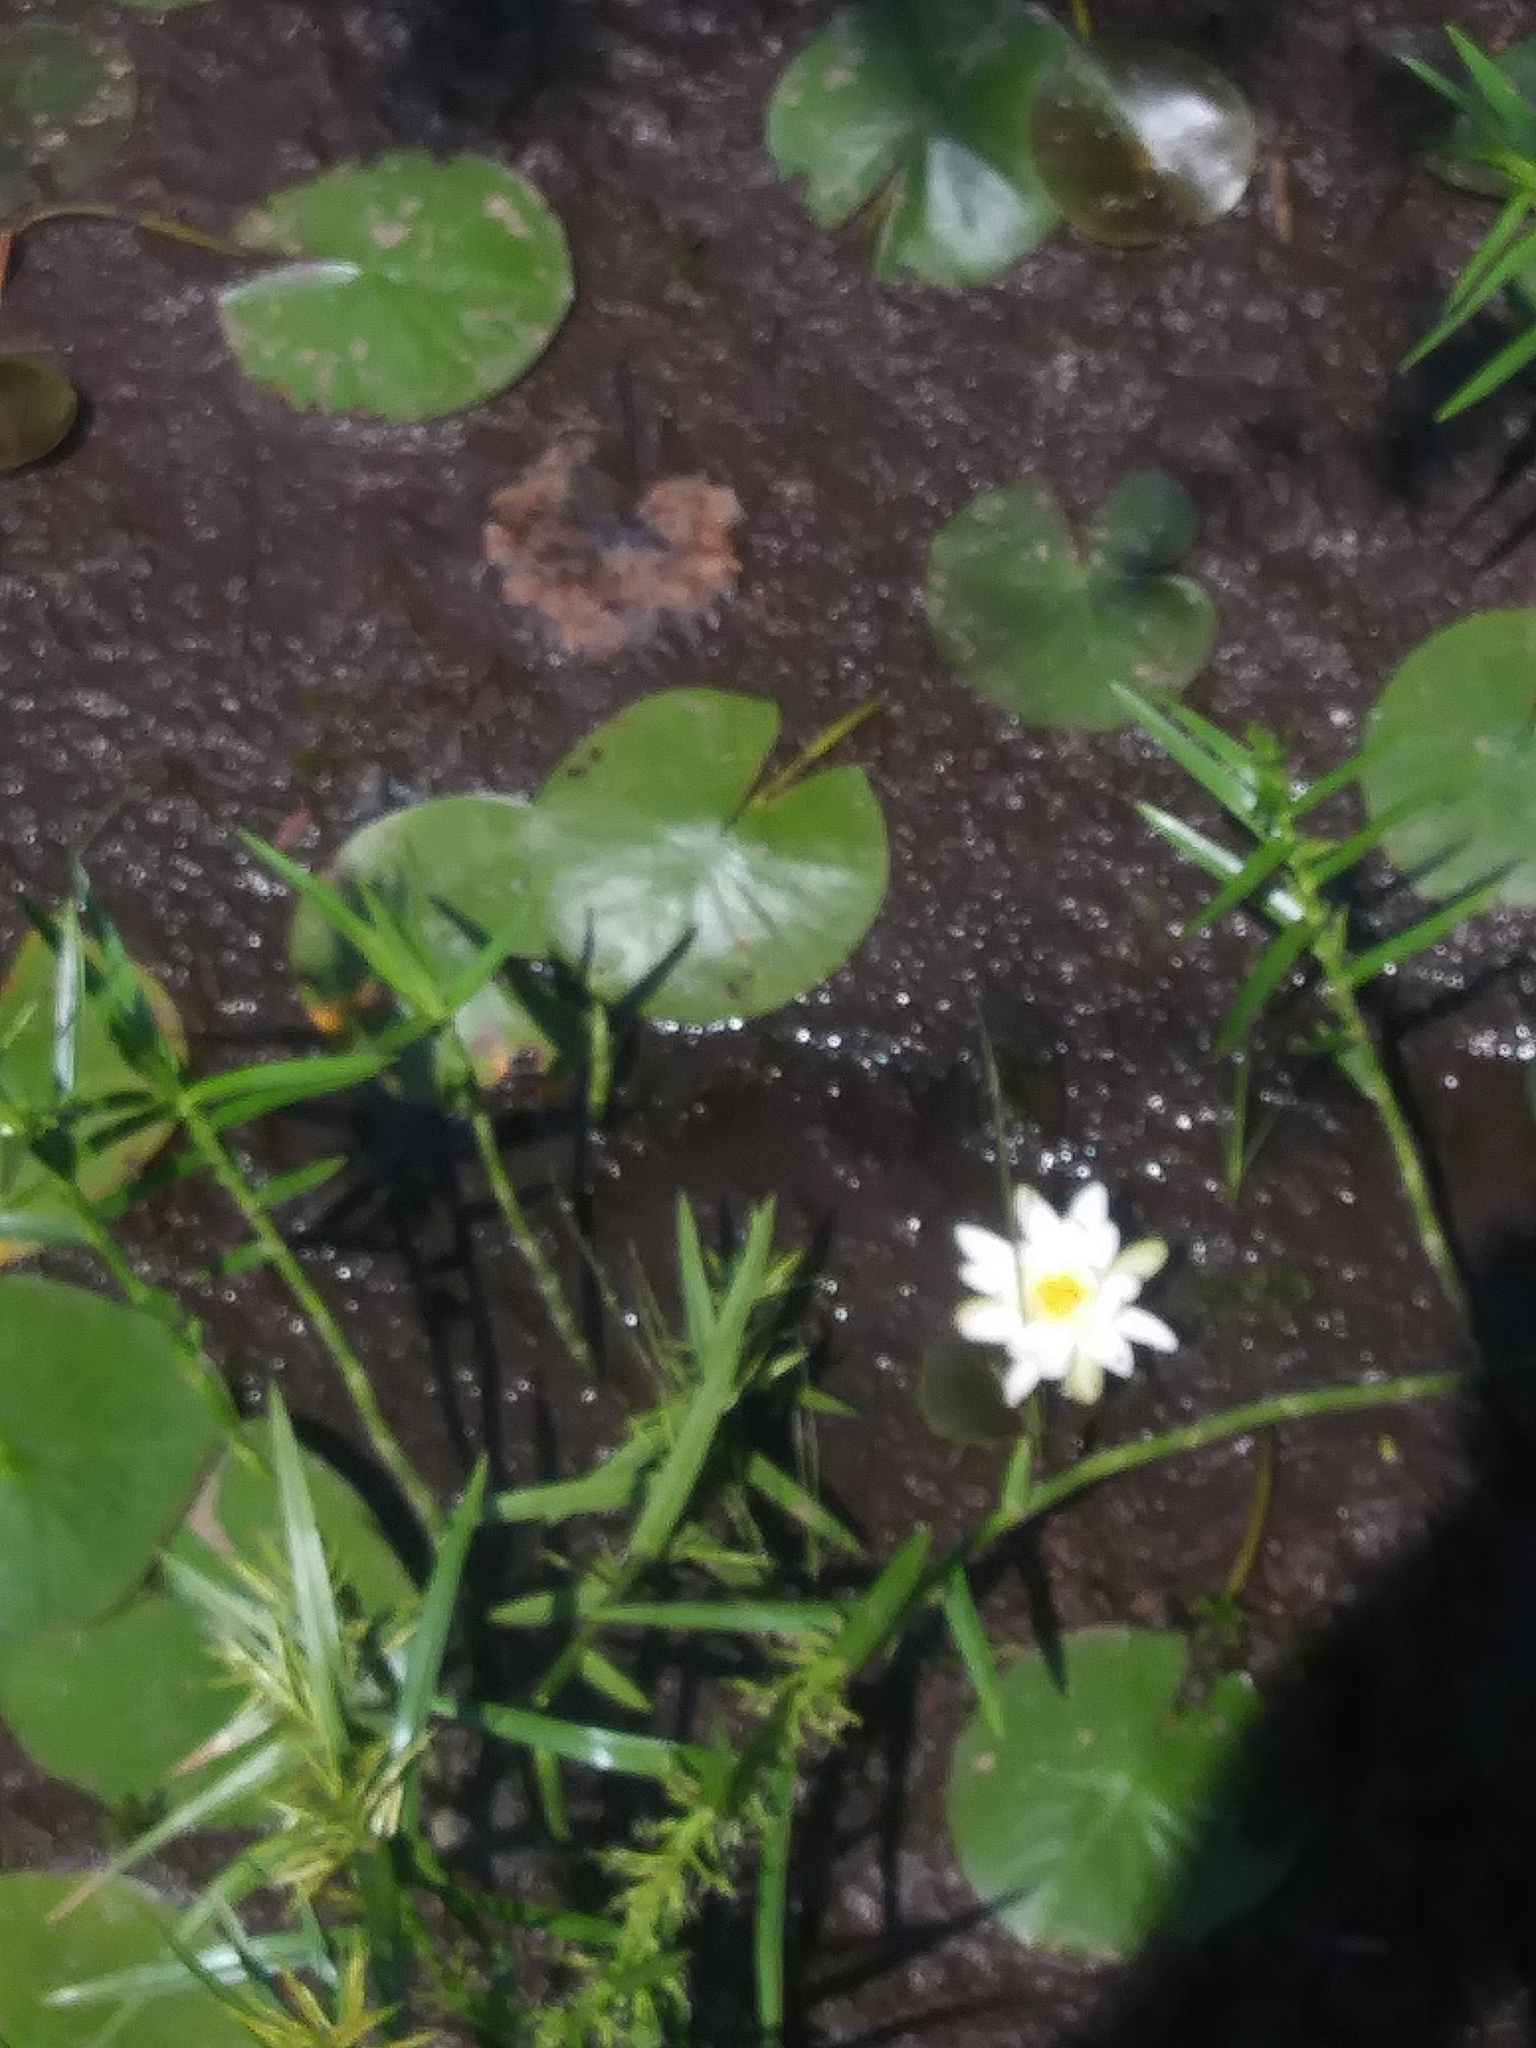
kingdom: Plantae
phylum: Tracheophyta
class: Magnoliopsida
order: Nymphaeales
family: Nymphaeaceae
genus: Nymphaea
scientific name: Nymphaea odorata
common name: Fragrant water-lily
